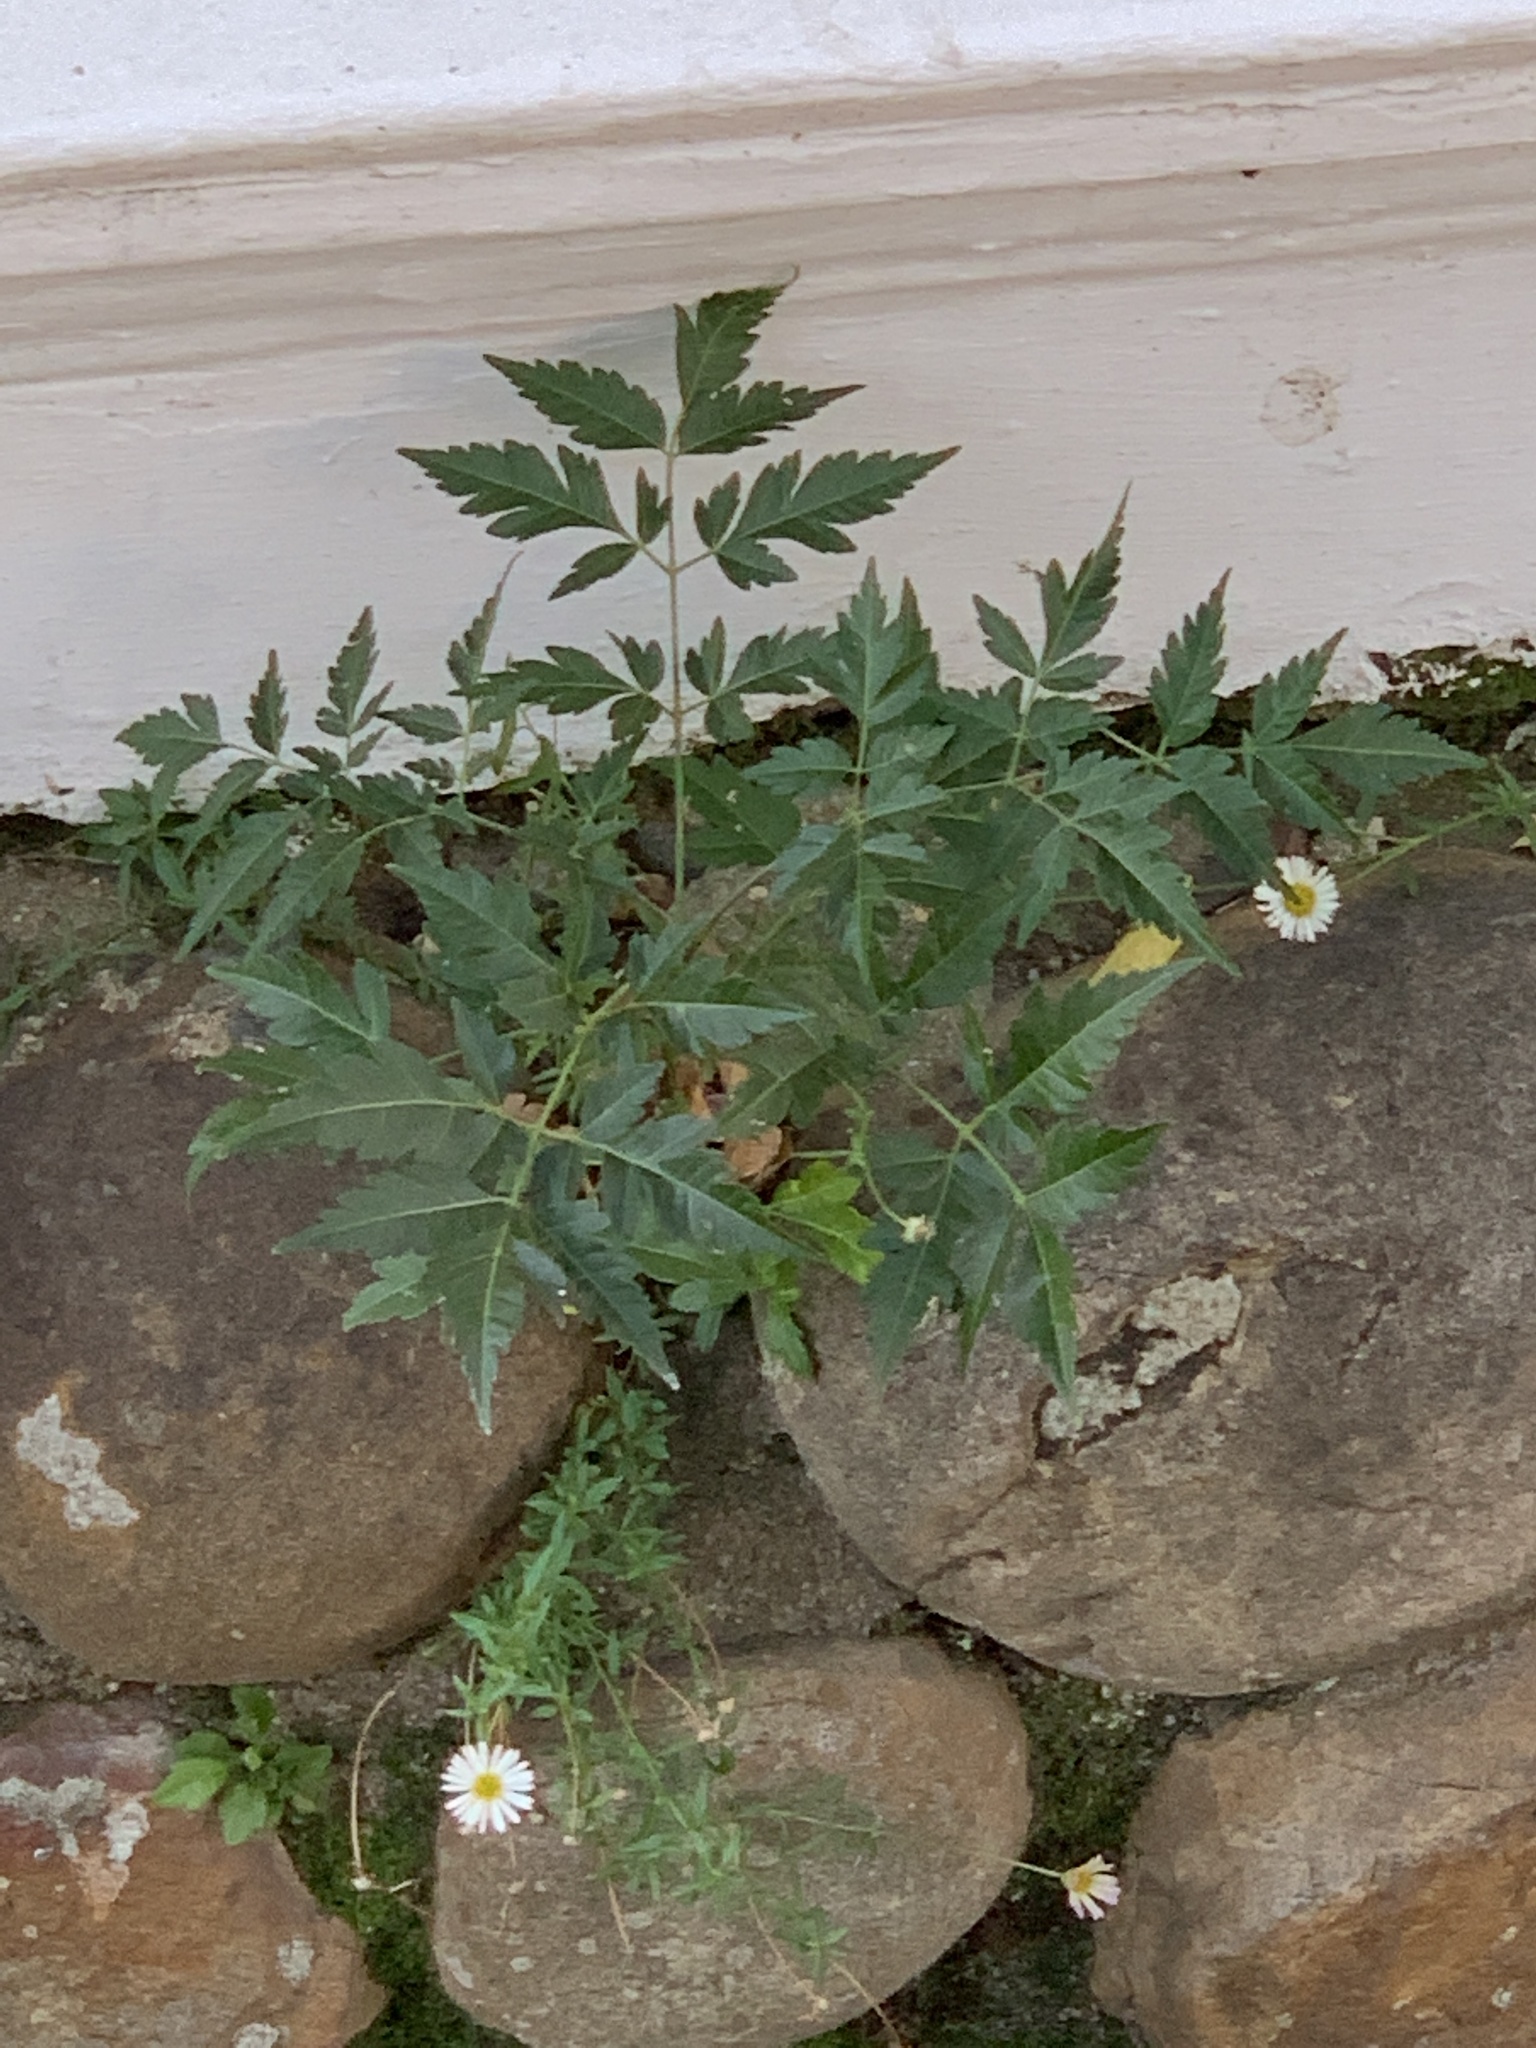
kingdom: Plantae
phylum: Tracheophyta
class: Magnoliopsida
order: Sapindales
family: Meliaceae
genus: Melia
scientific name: Melia azedarach
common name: Chinaberrytree
